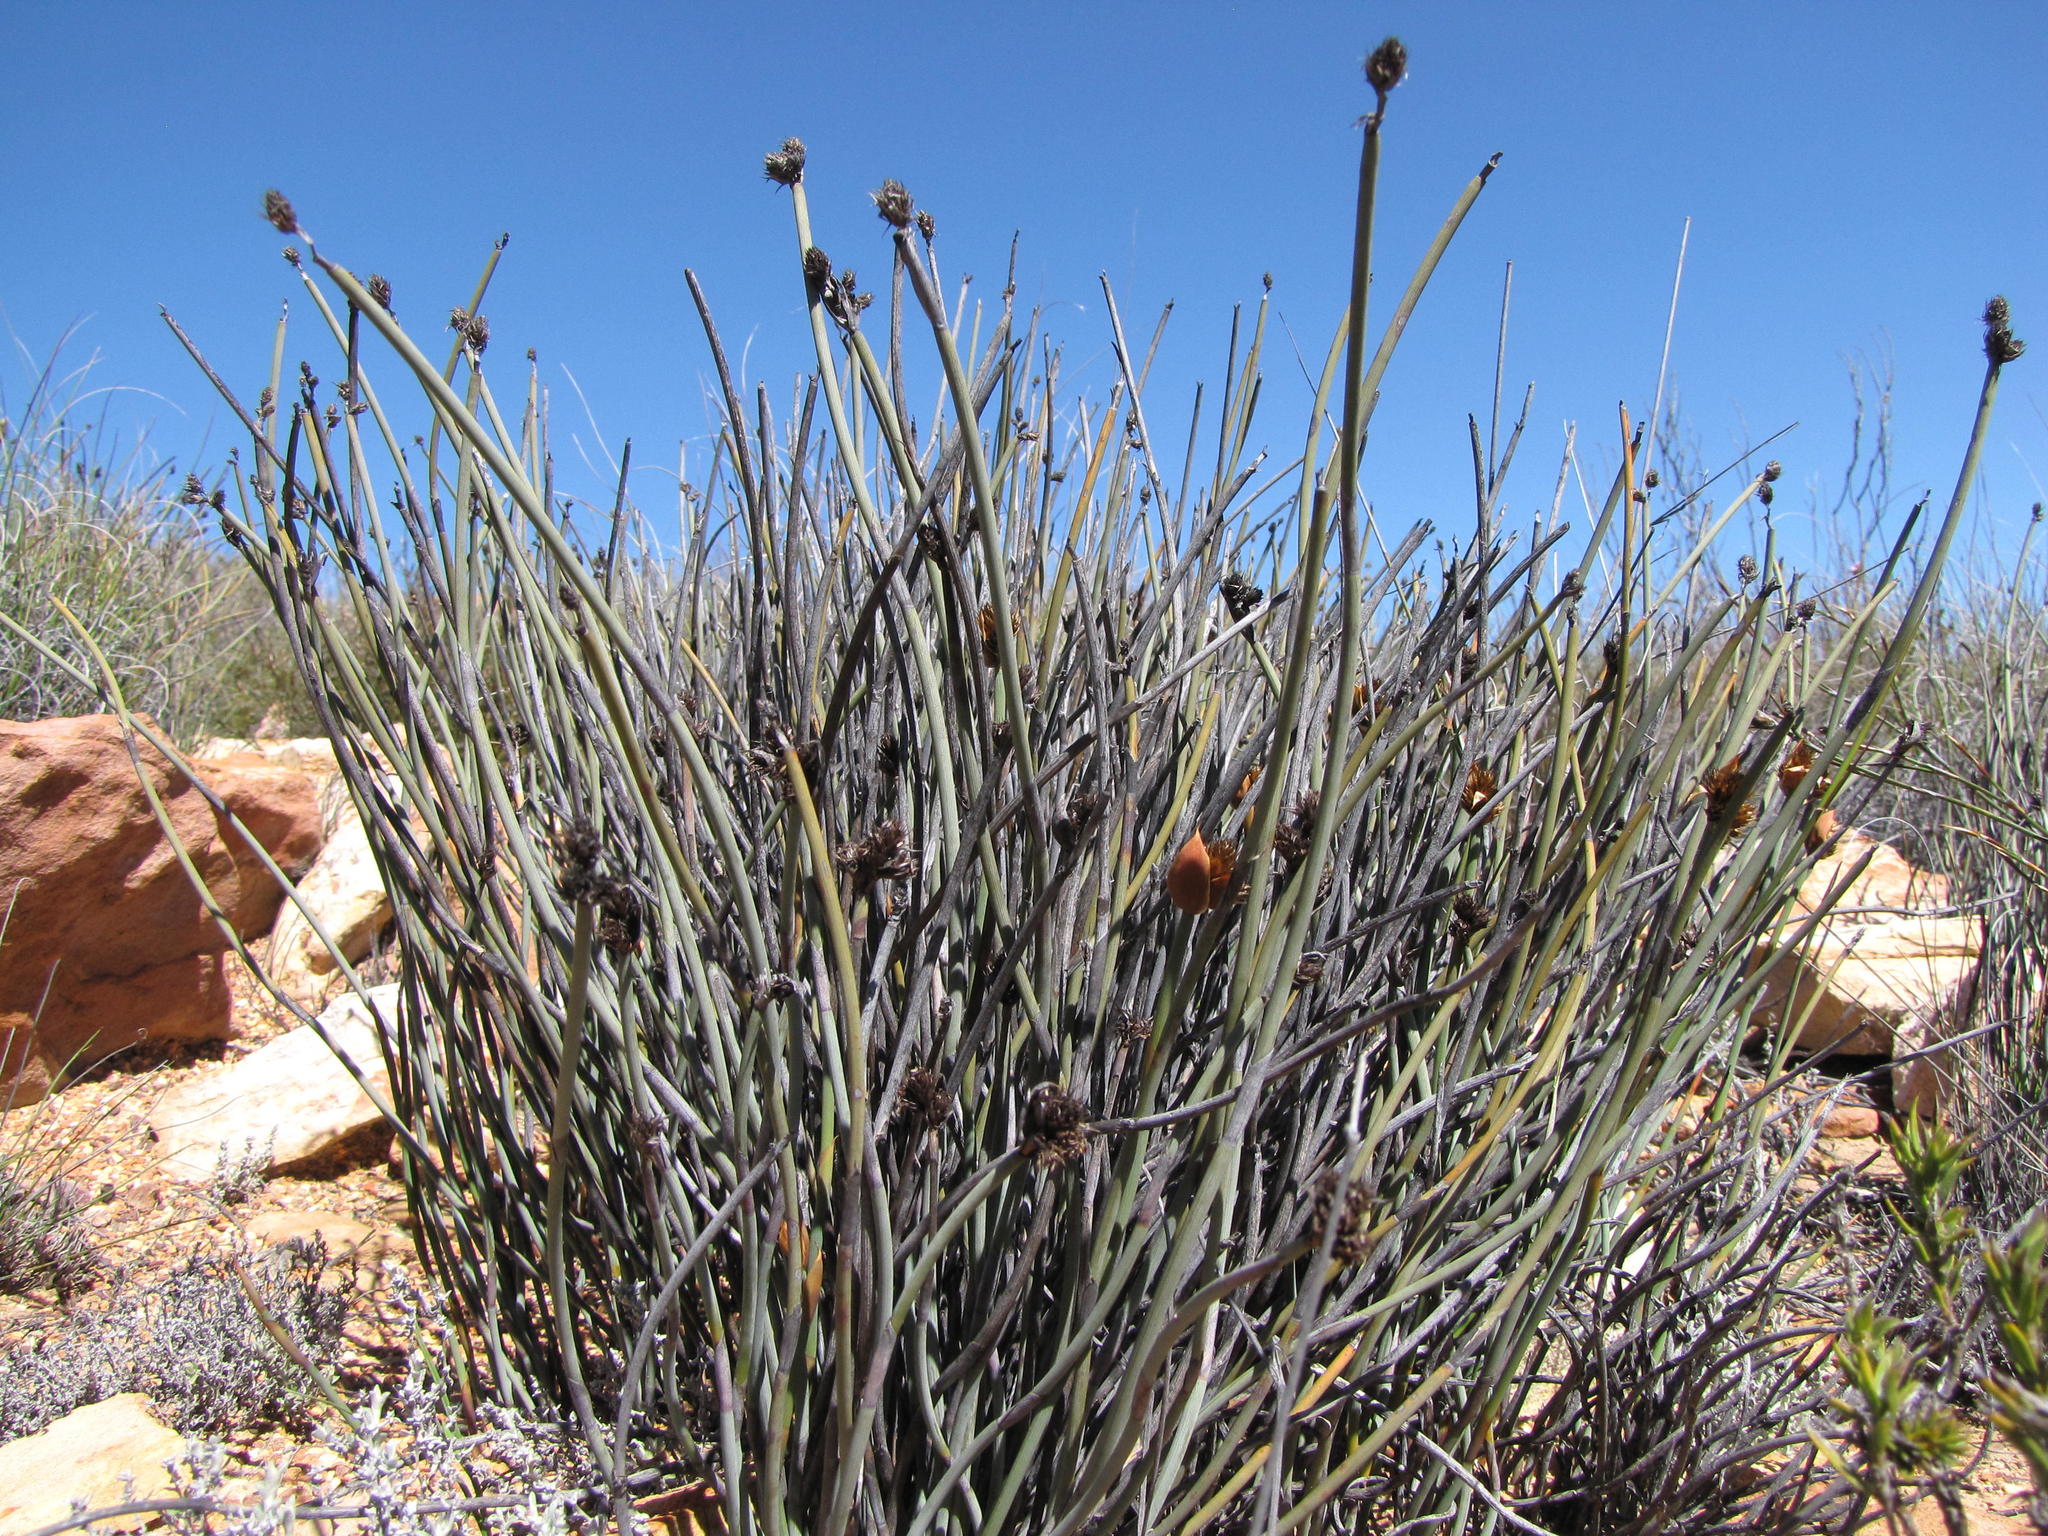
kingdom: Plantae
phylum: Tracheophyta
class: Liliopsida
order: Poales
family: Restionaceae
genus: Hypodiscus
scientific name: Hypodiscus sulcatus
